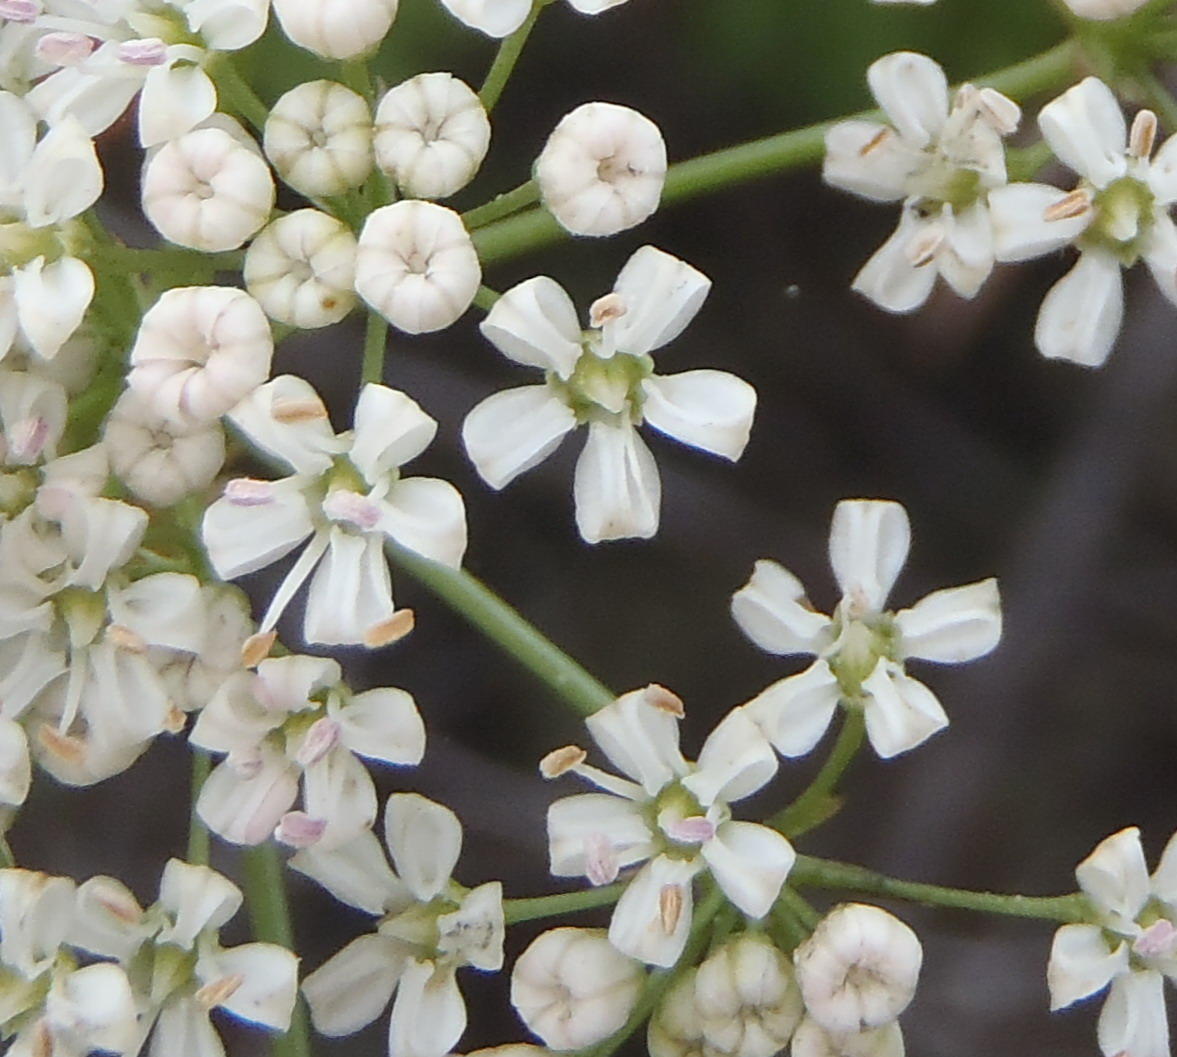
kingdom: Plantae
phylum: Tracheophyta
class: Magnoliopsida
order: Apiales
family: Apiaceae
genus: Lichtensteinia
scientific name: Lichtensteinia interrupta
